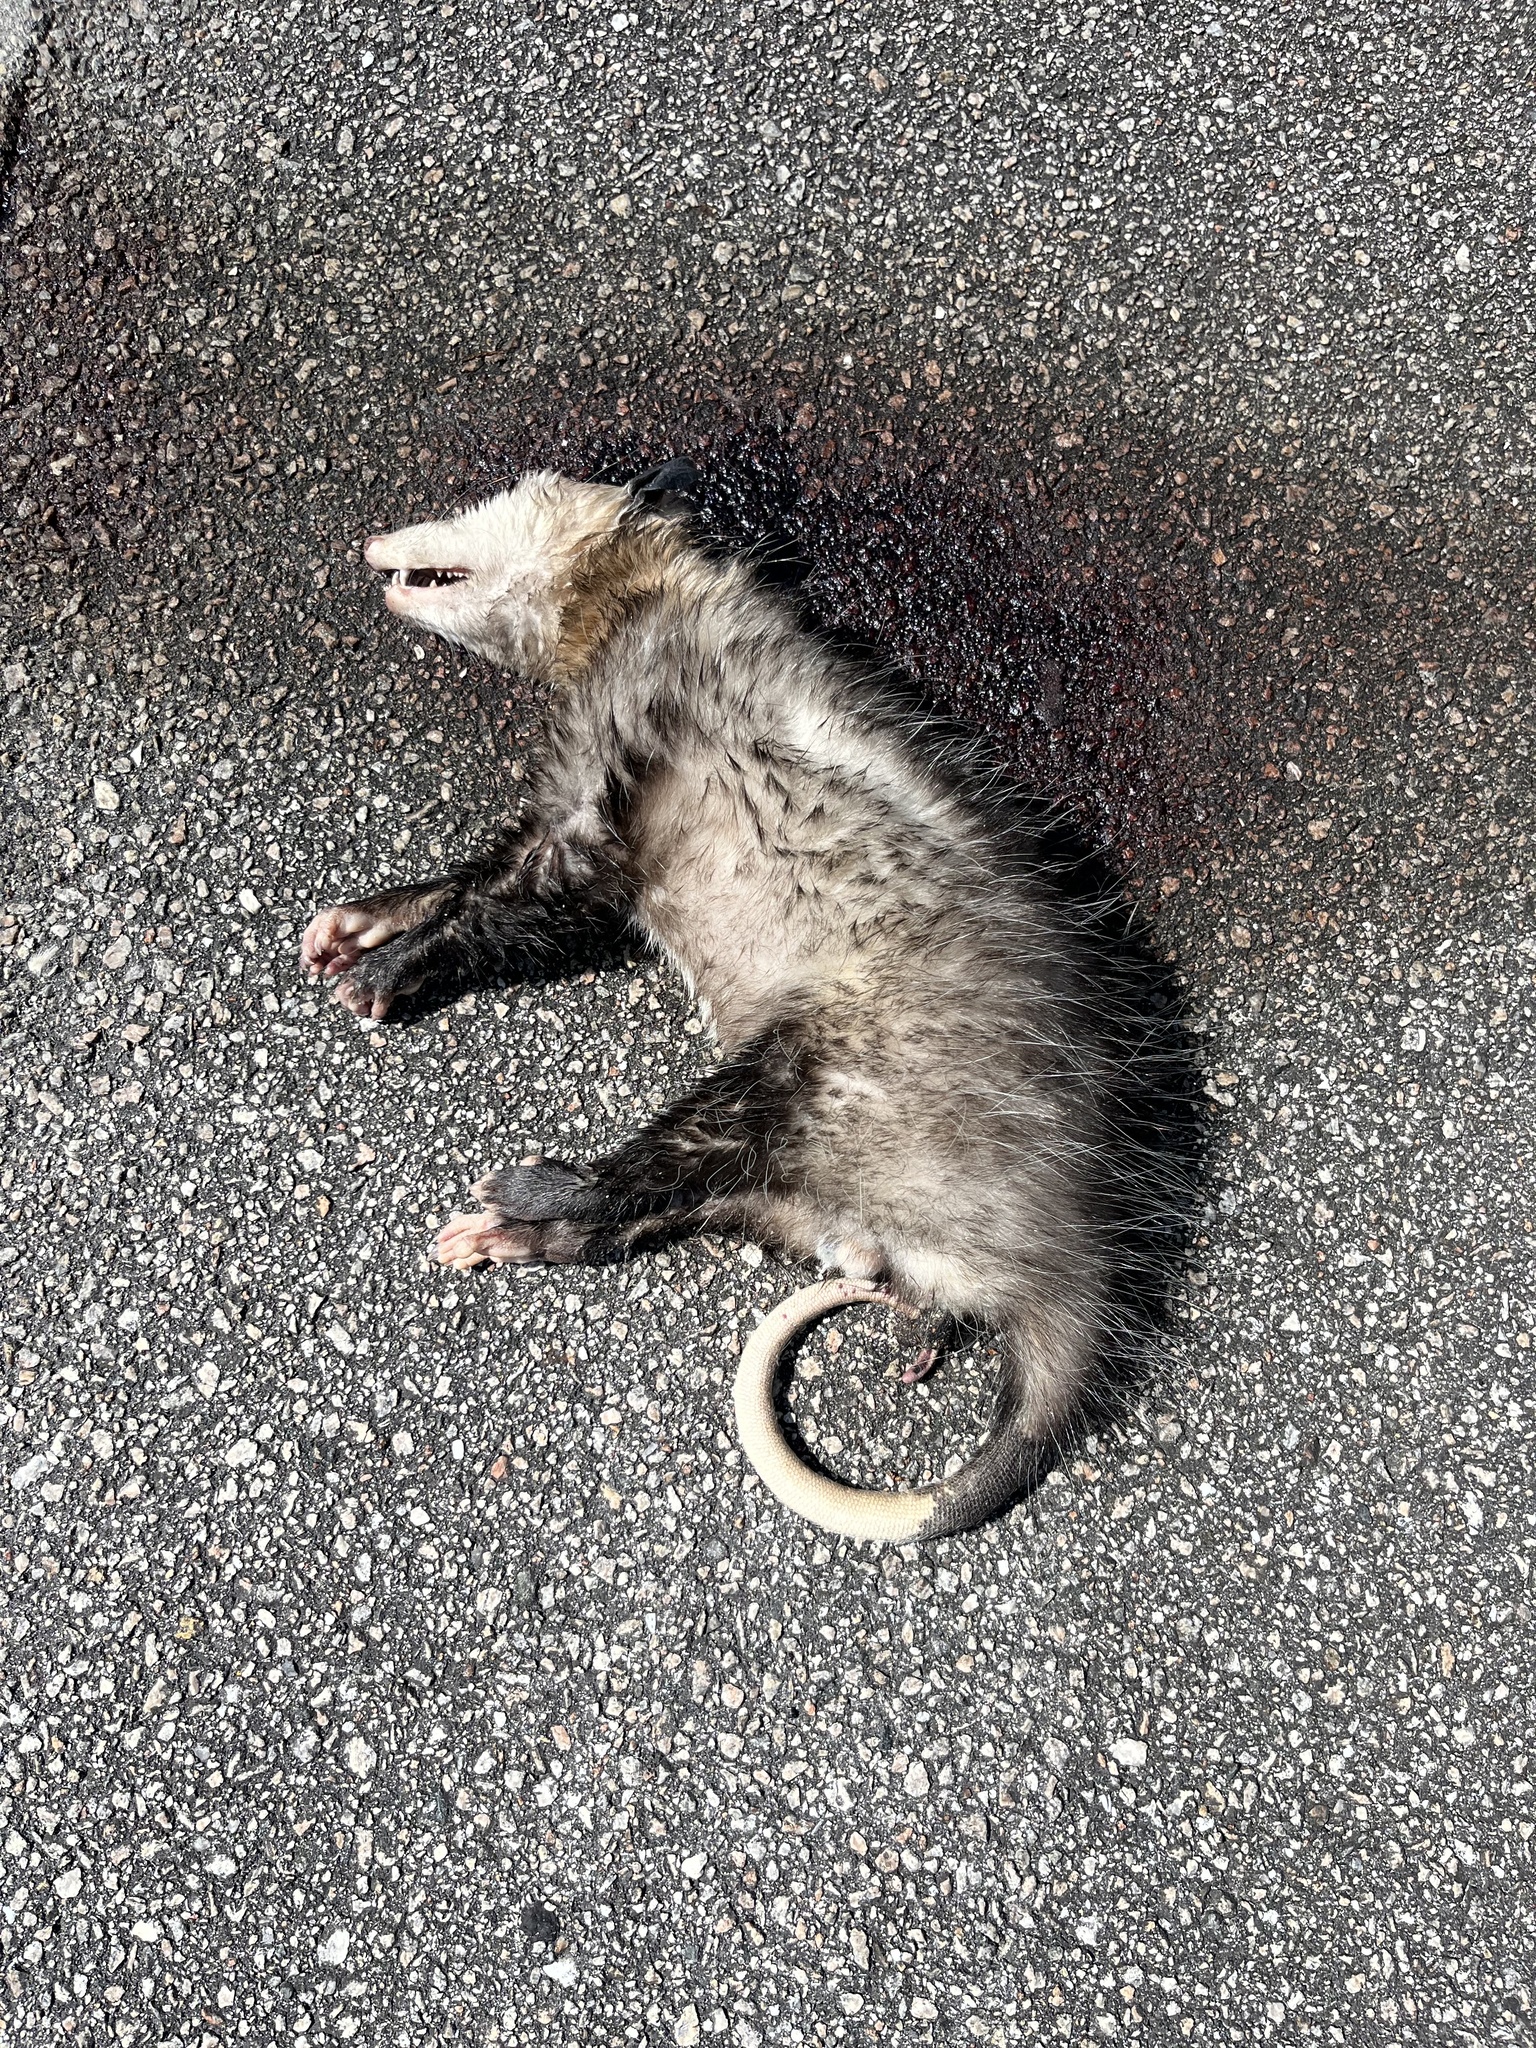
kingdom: Animalia
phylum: Chordata
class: Mammalia
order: Didelphimorphia
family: Didelphidae
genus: Didelphis
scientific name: Didelphis virginiana
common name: Virginia opossum
